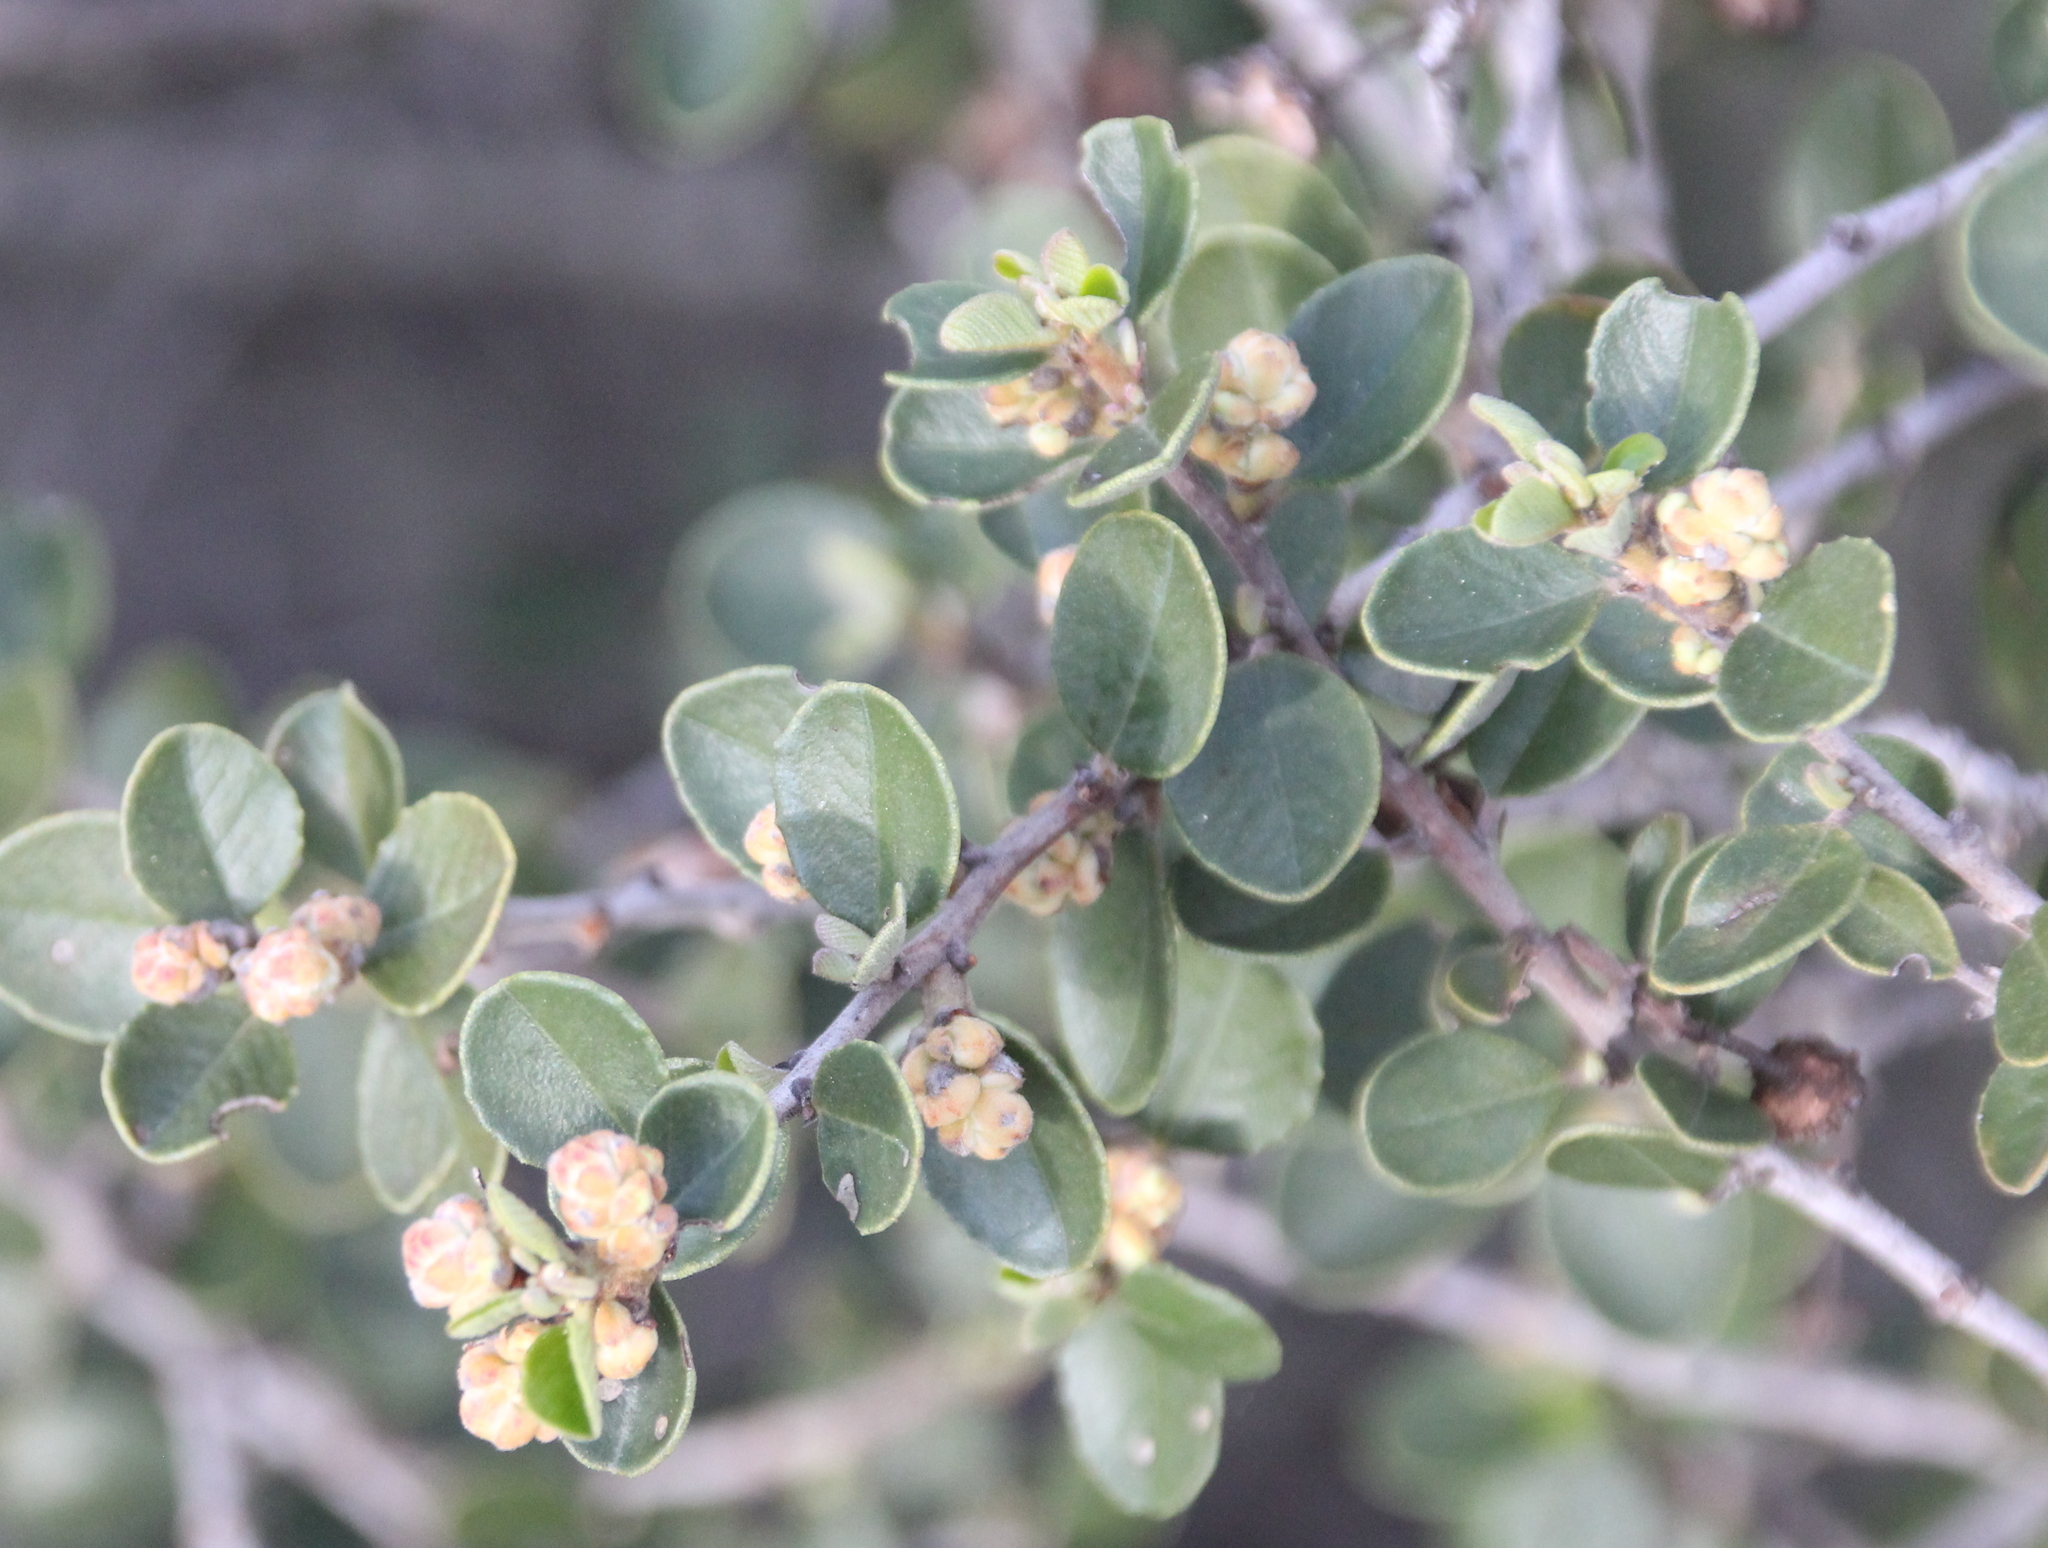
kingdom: Plantae
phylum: Tracheophyta
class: Magnoliopsida
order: Rosales
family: Rhamnaceae
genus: Ceanothus
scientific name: Ceanothus verrucosus
